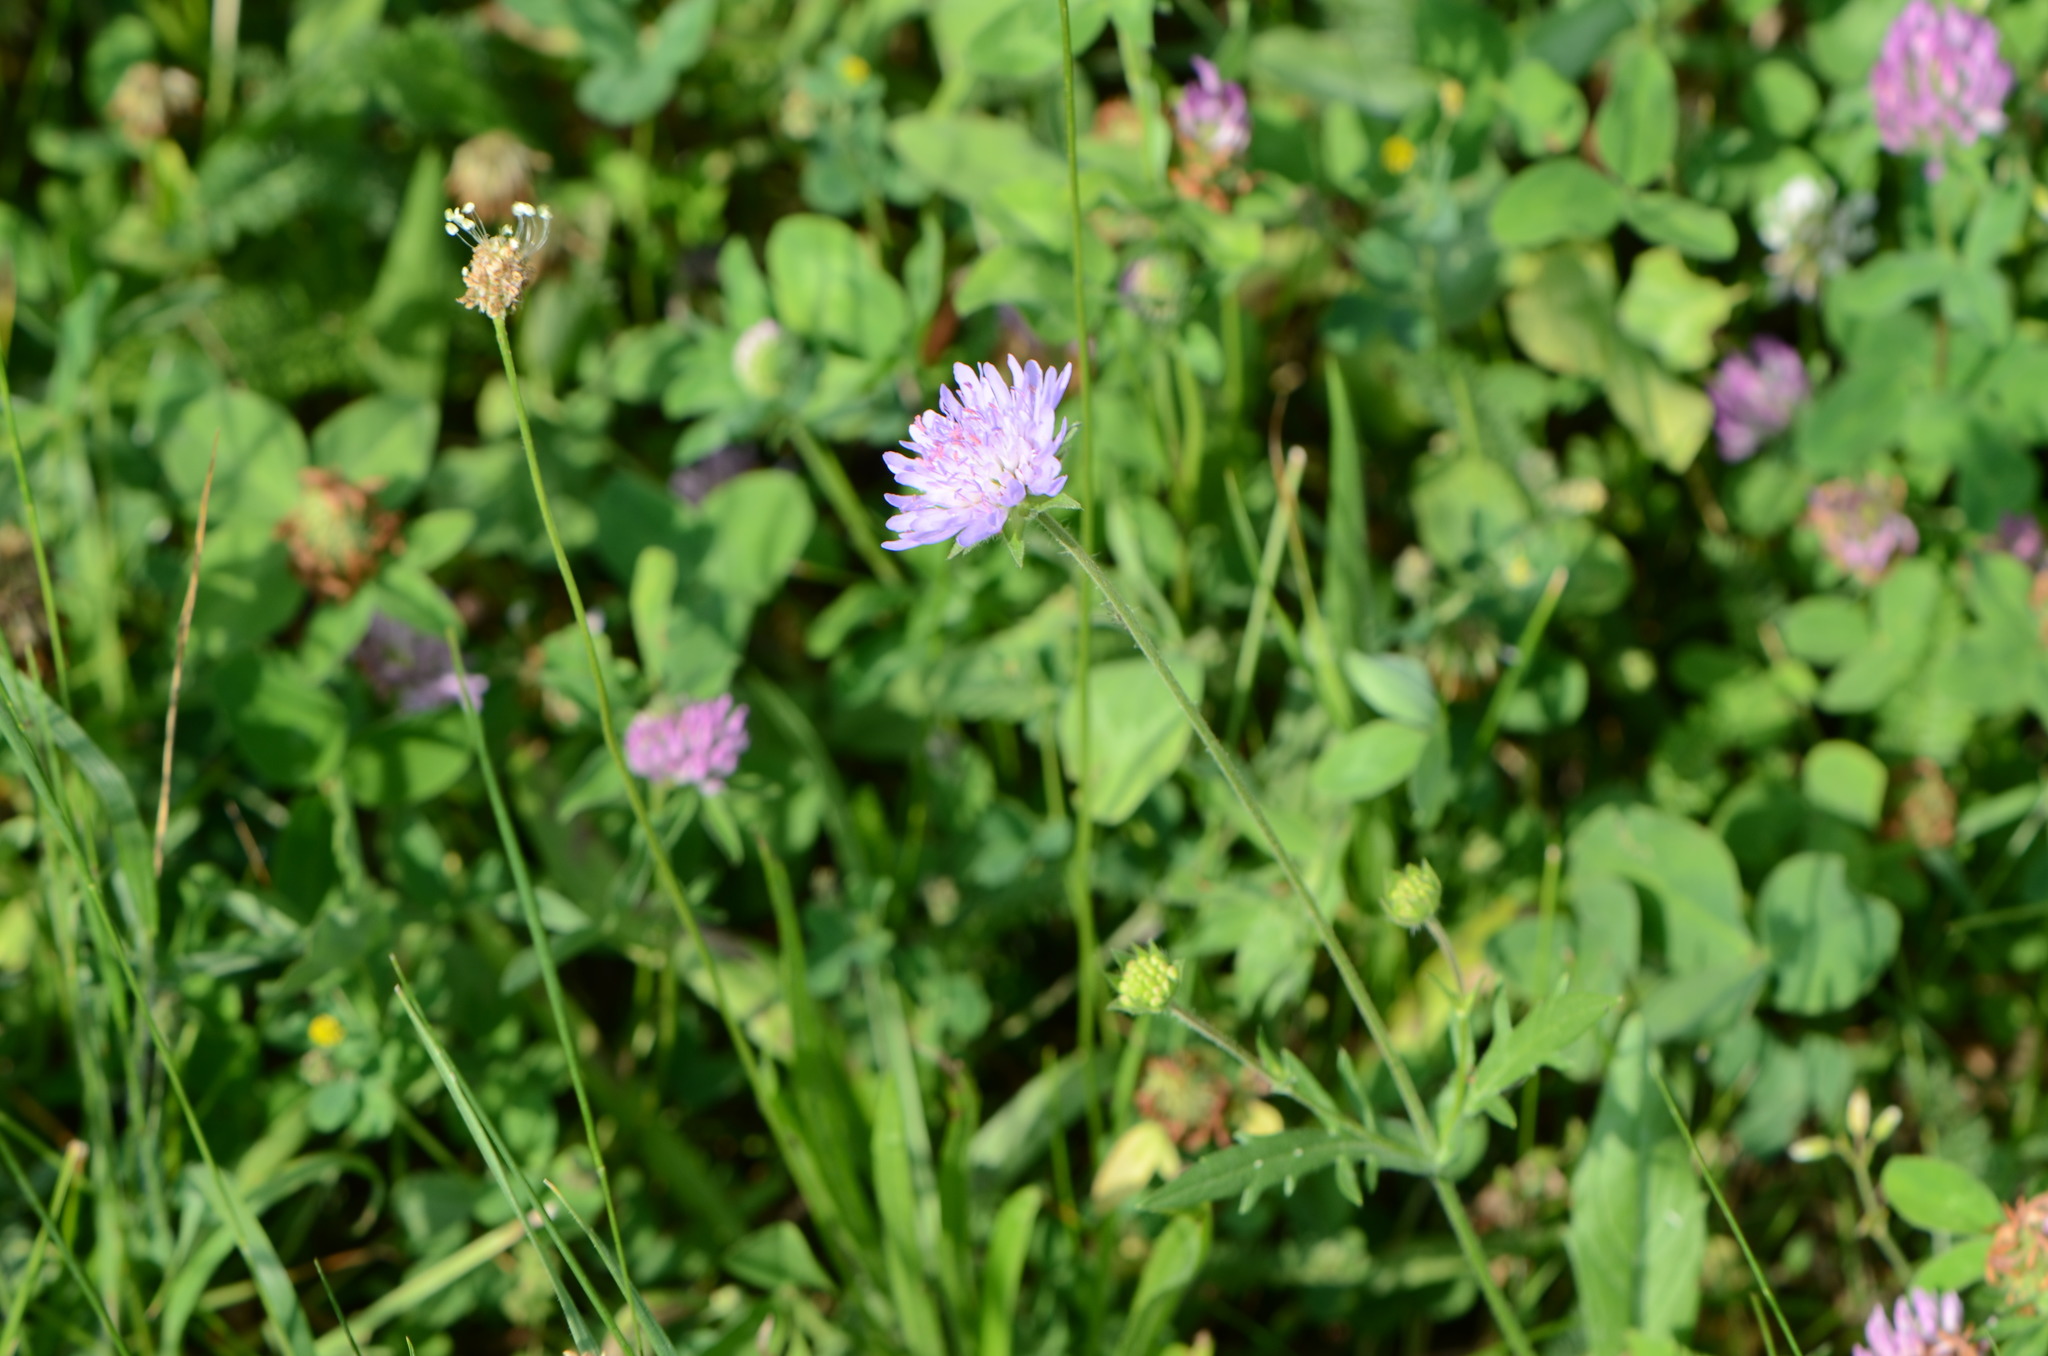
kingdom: Plantae
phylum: Tracheophyta
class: Magnoliopsida
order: Dipsacales
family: Caprifoliaceae
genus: Knautia
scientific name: Knautia arvensis
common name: Field scabiosa
